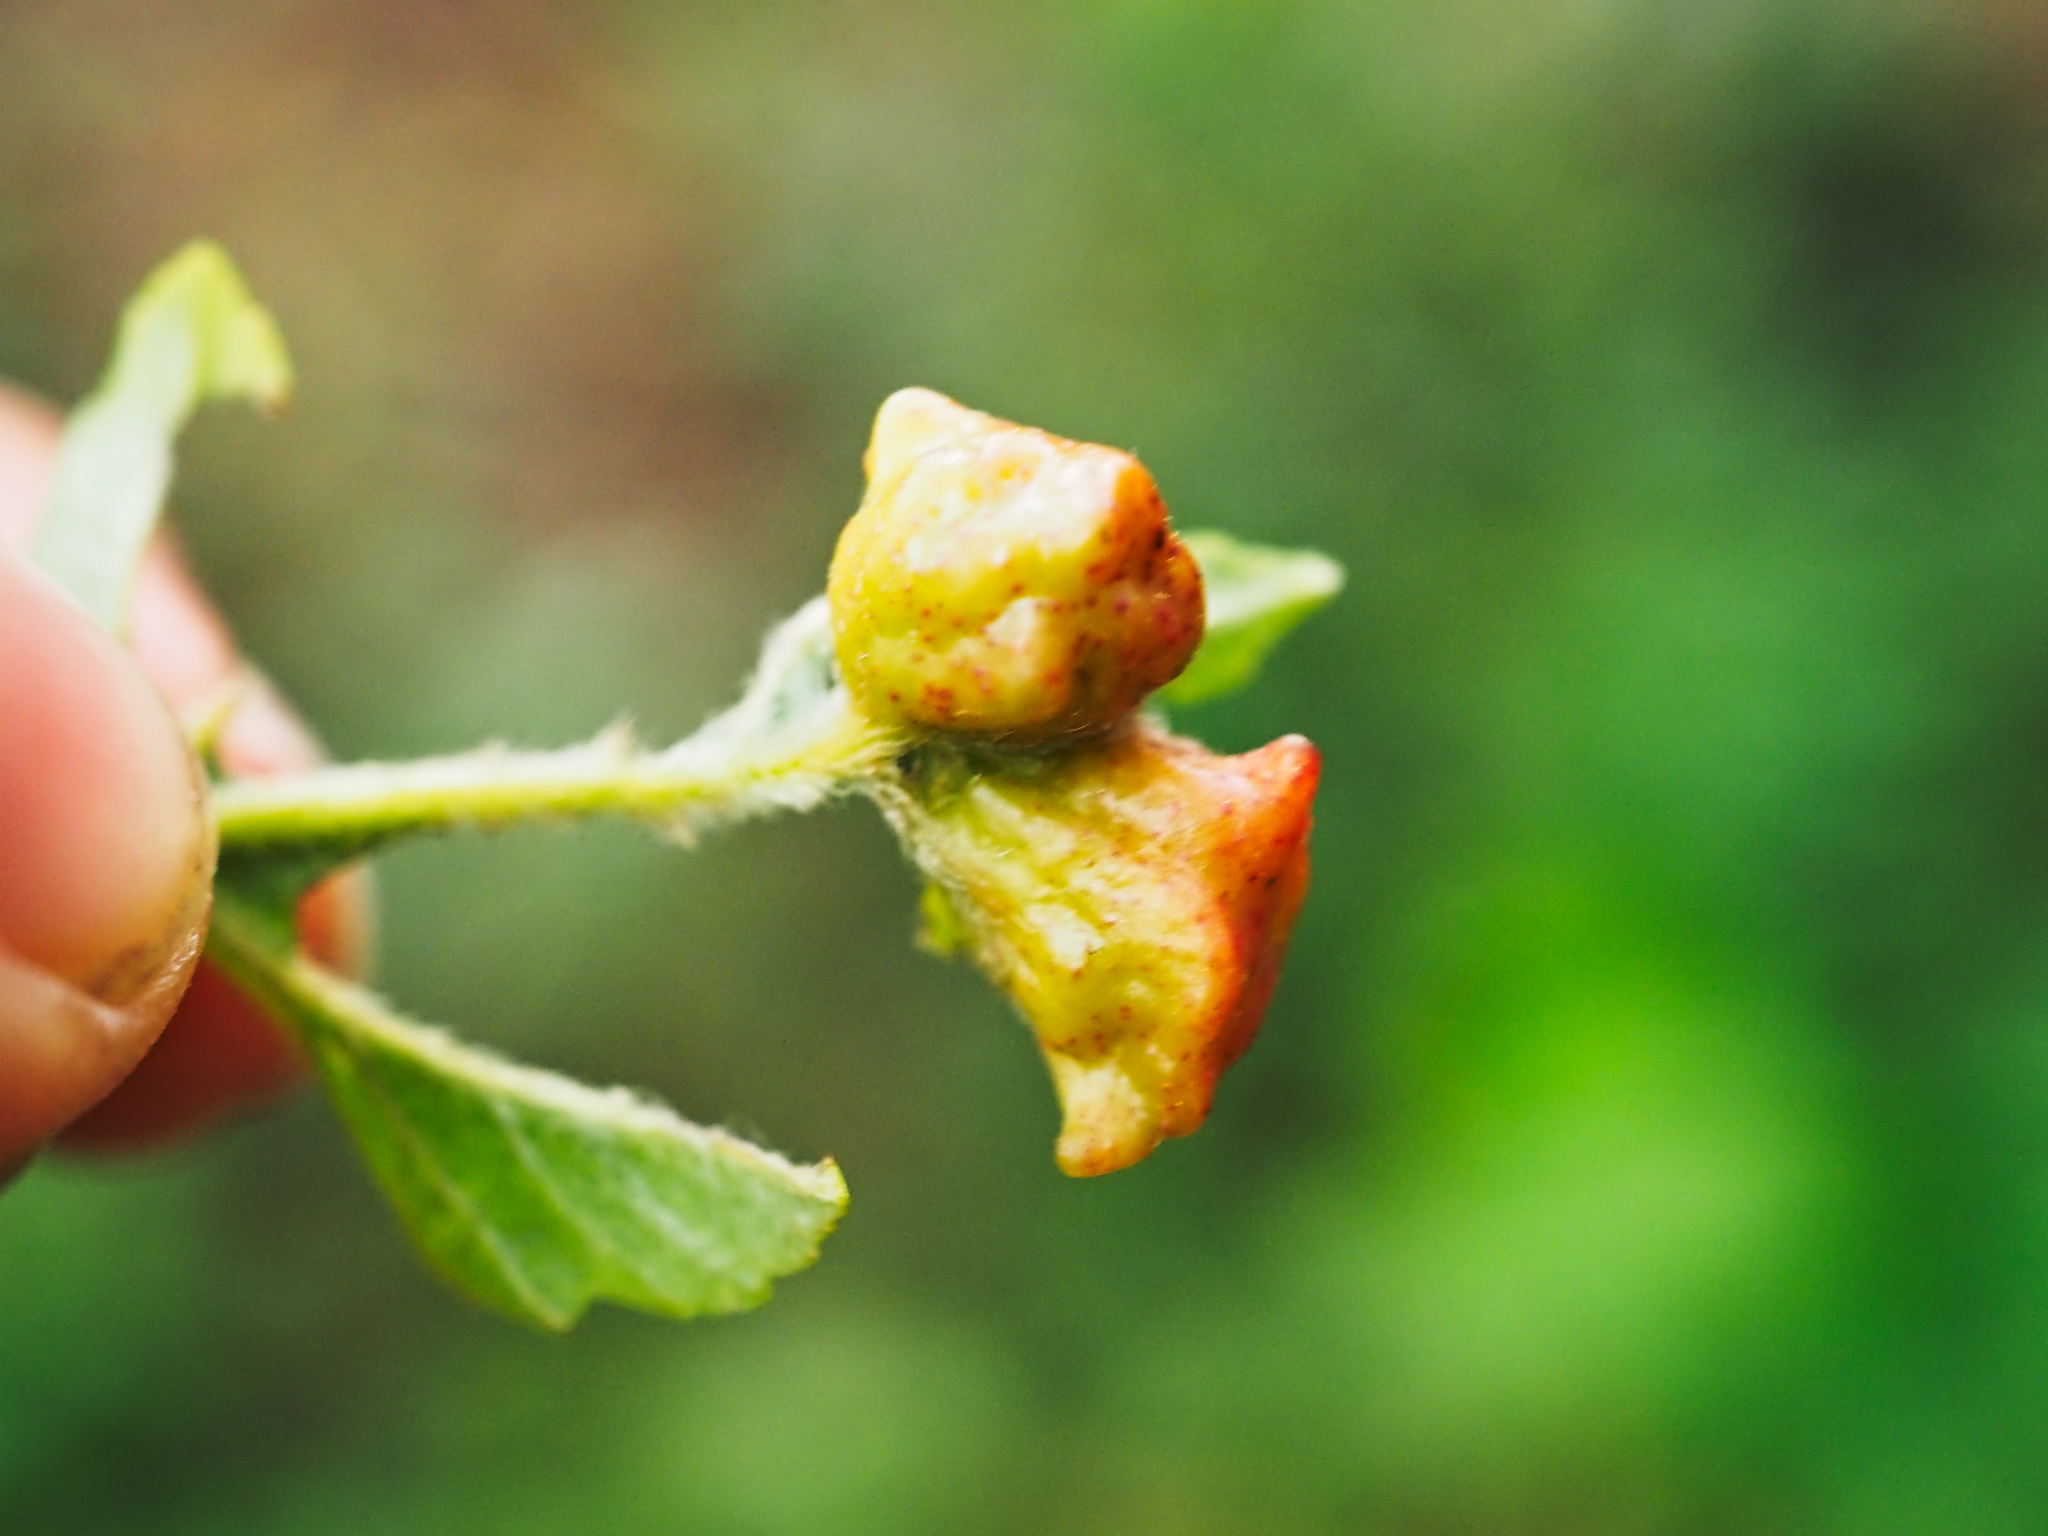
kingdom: Animalia
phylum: Arthropoda
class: Insecta
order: Hymenoptera
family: Cynipidae
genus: Pediaspis
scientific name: Pediaspis aceris
